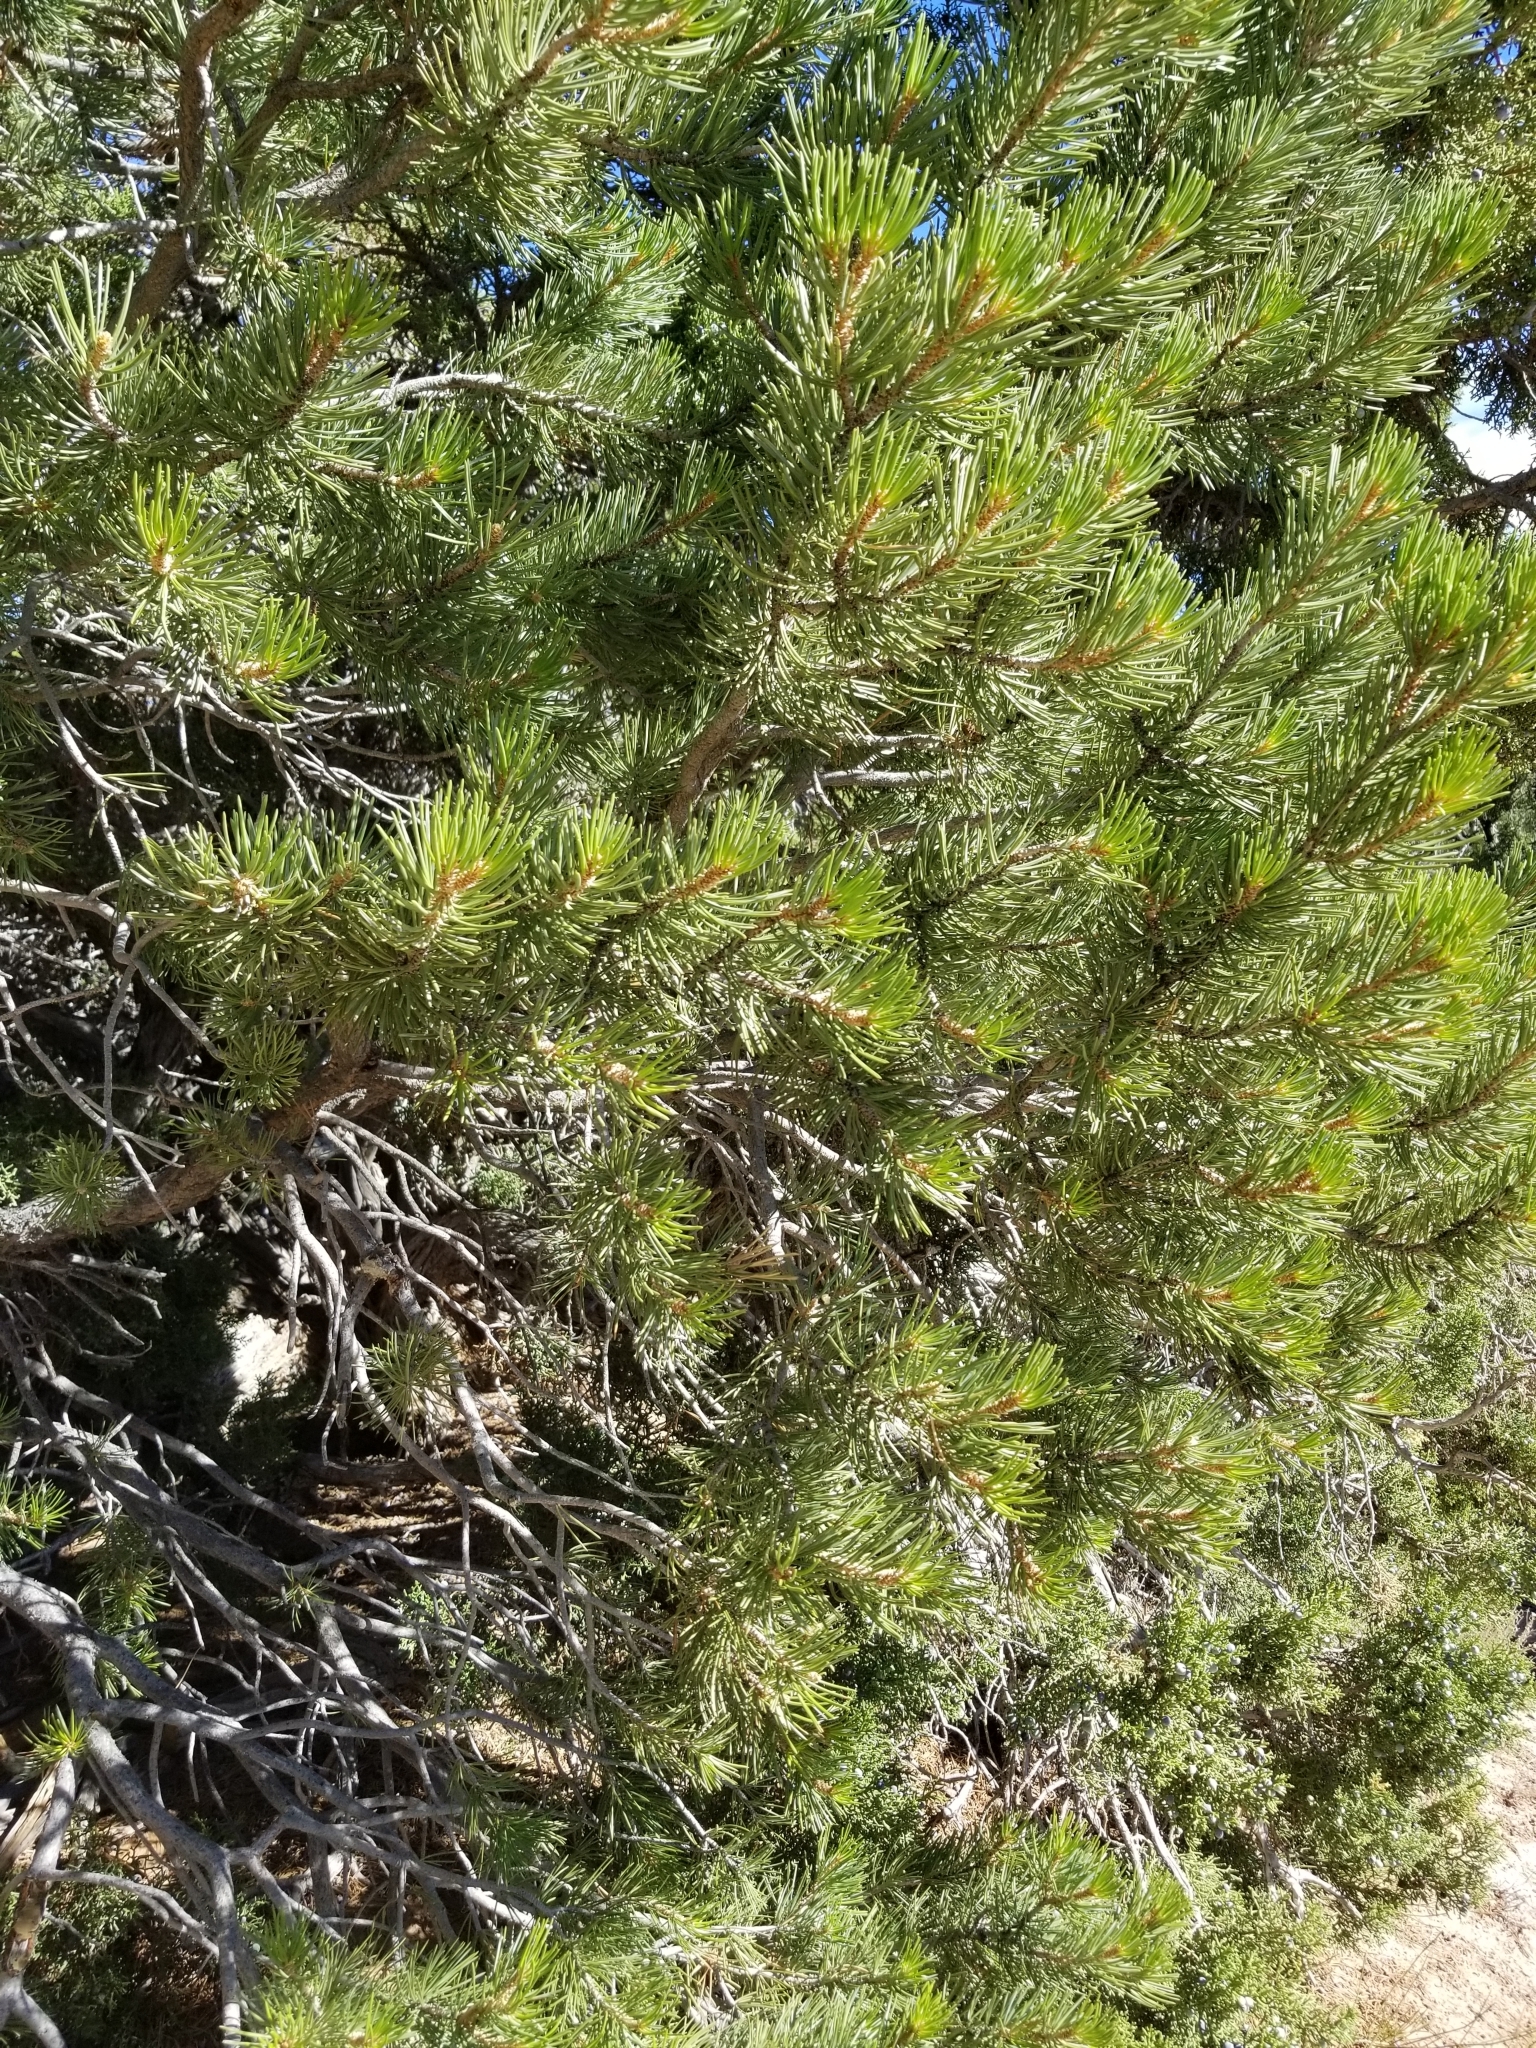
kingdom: Plantae
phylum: Tracheophyta
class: Pinopsida
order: Pinales
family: Pinaceae
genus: Pinus
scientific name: Pinus edulis
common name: Colorado pinyon
